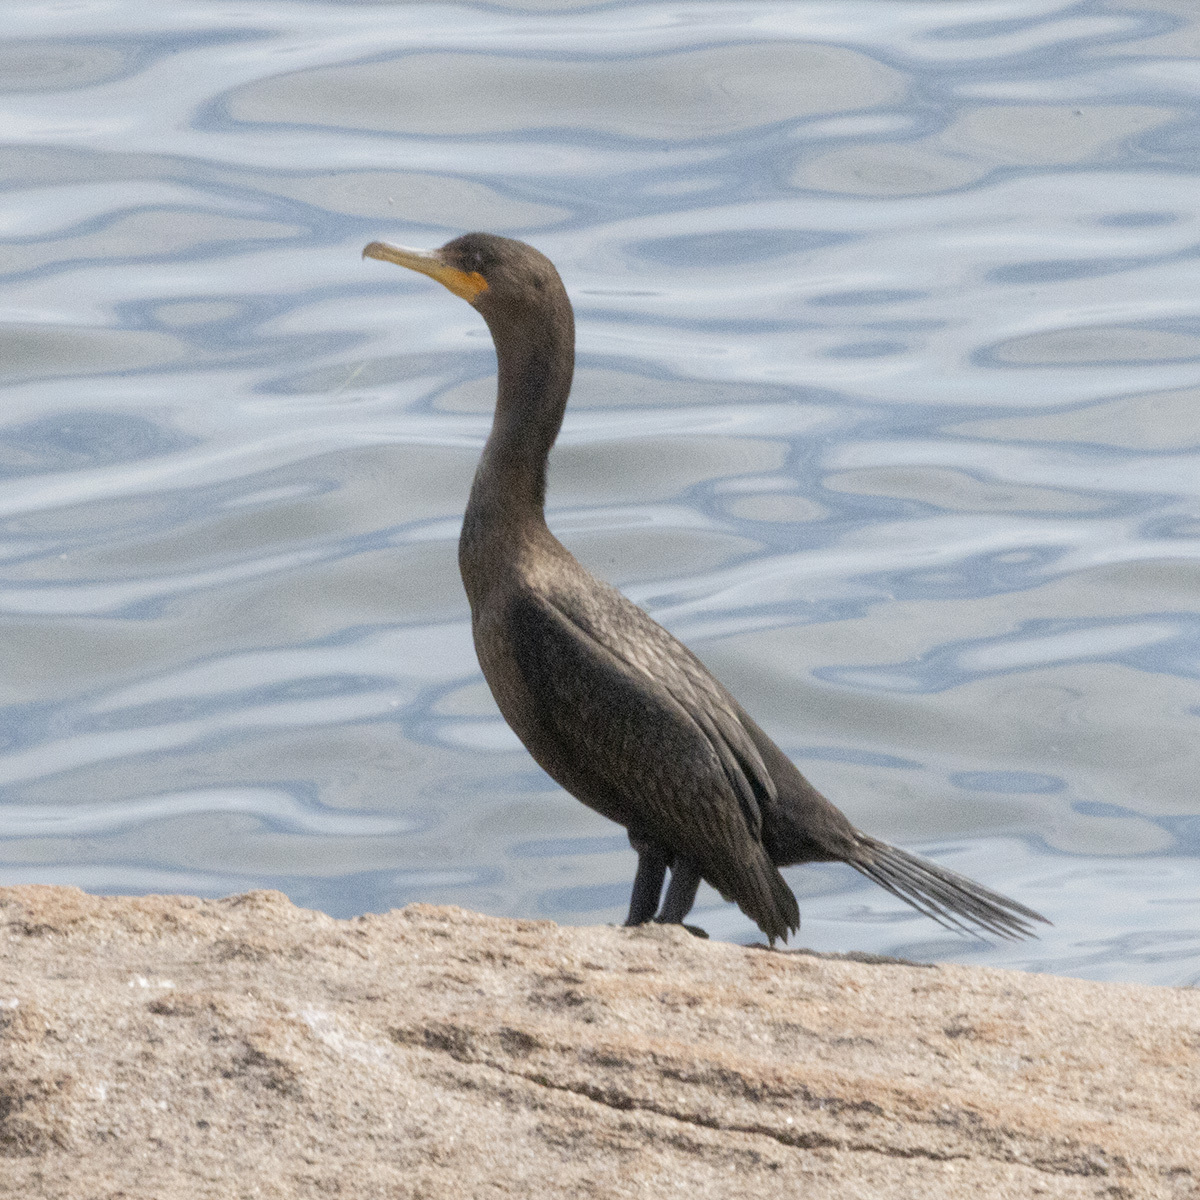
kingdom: Animalia
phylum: Chordata
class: Aves
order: Suliformes
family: Phalacrocoracidae
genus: Phalacrocorax
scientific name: Phalacrocorax auritus
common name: Double-crested cormorant
